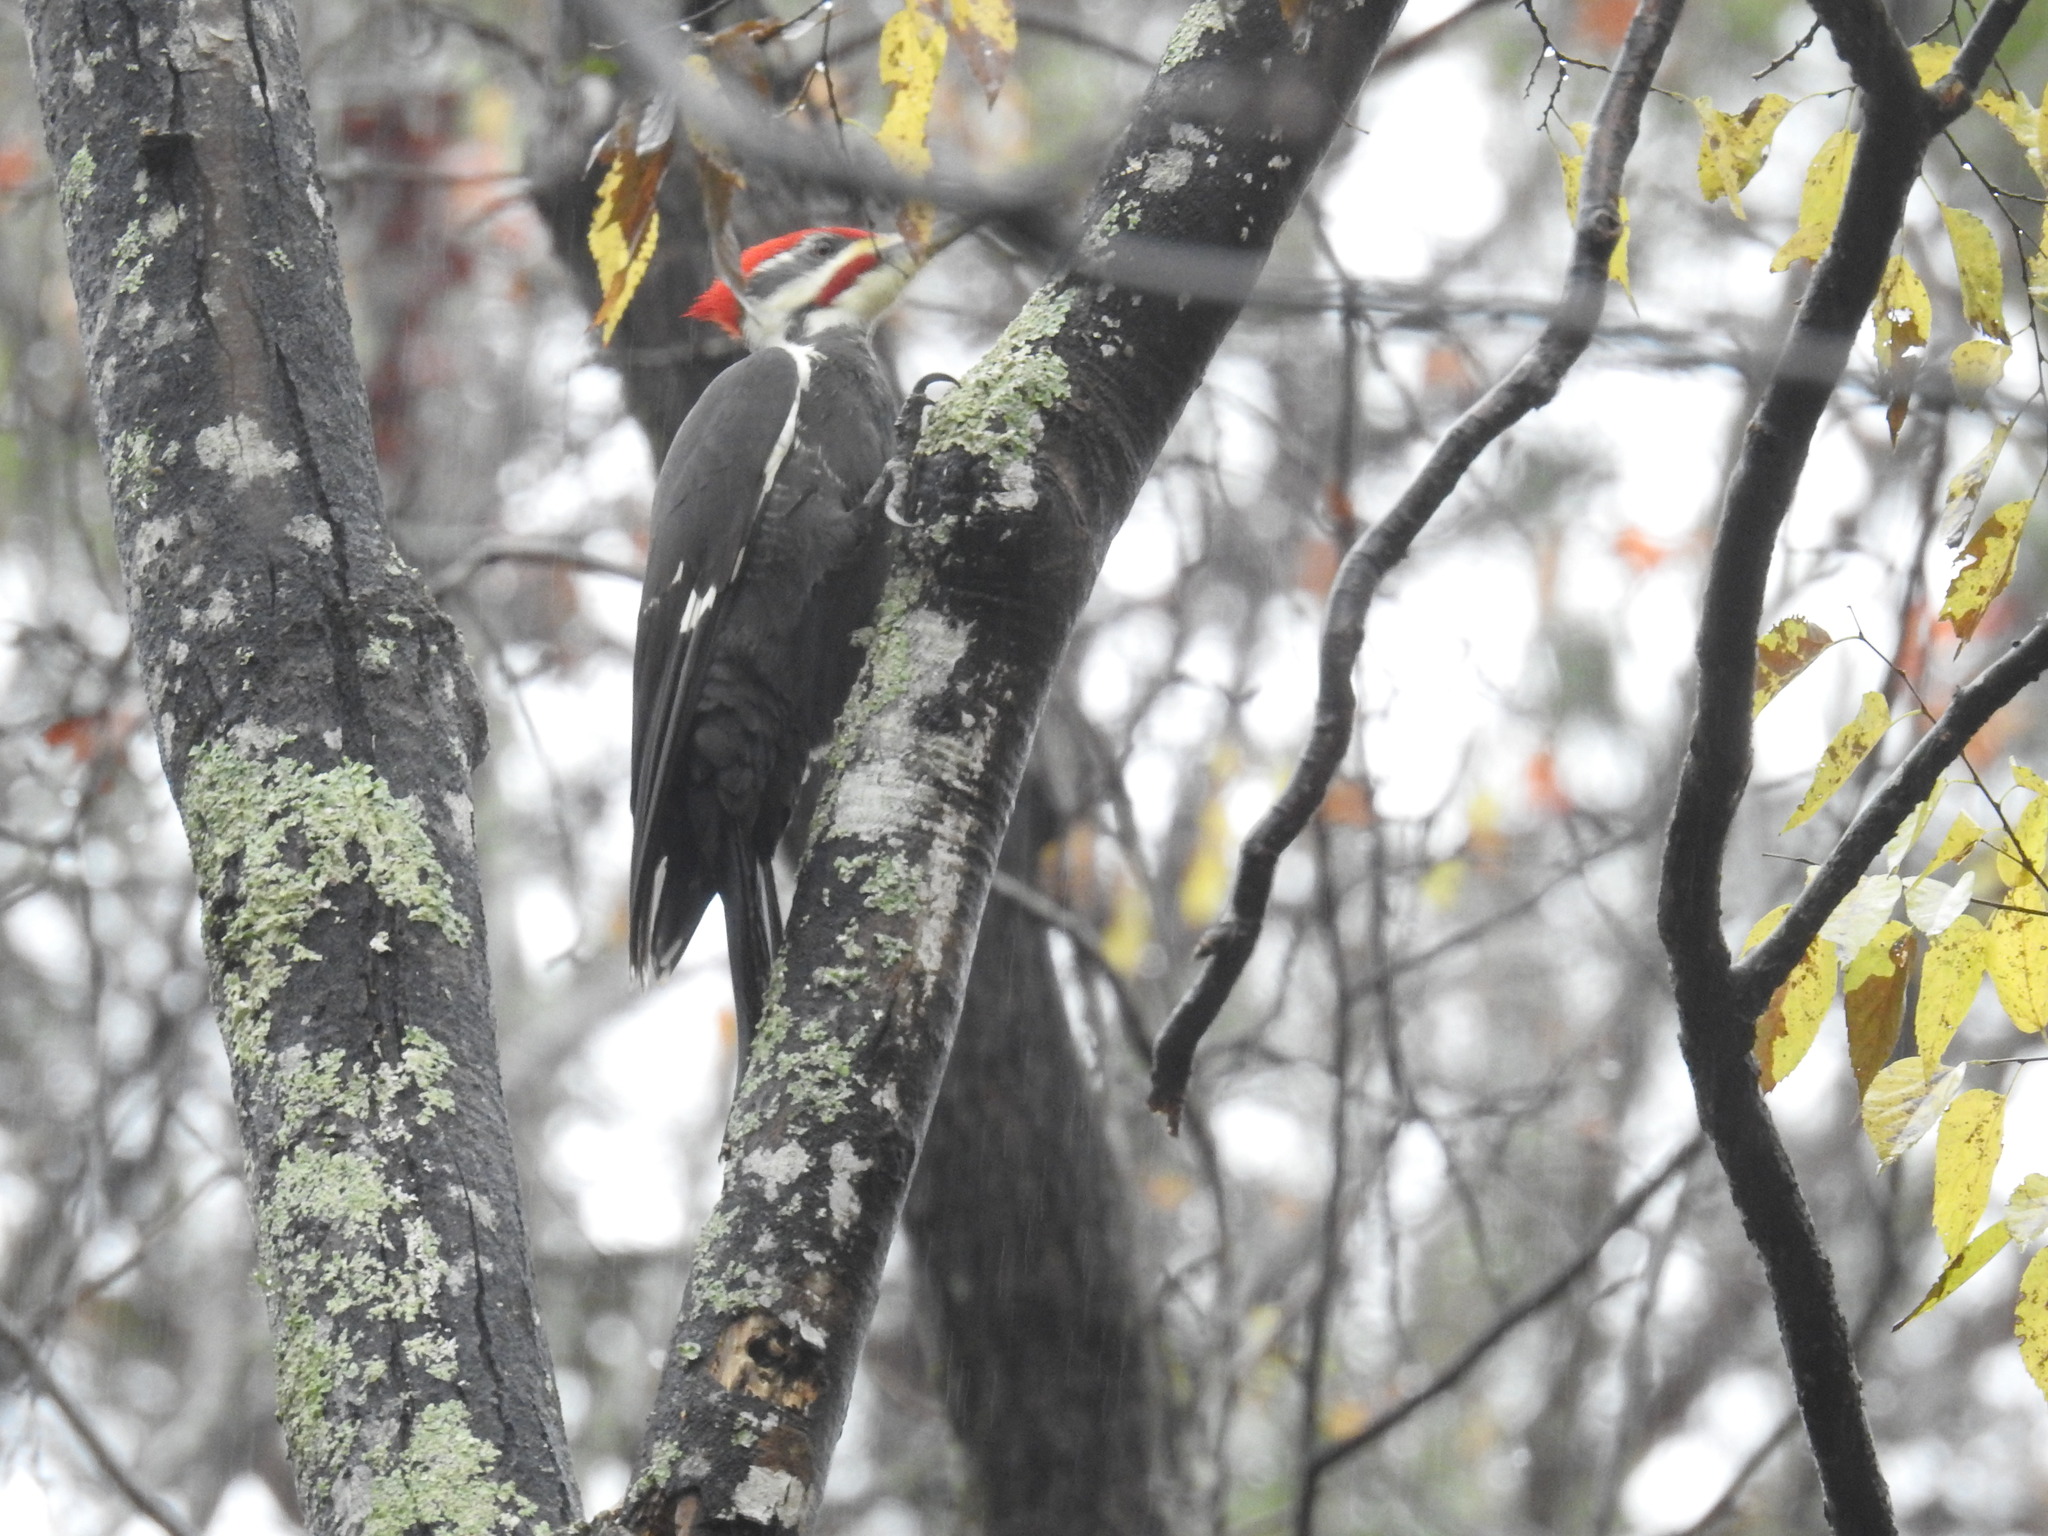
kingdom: Animalia
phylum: Chordata
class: Aves
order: Piciformes
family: Picidae
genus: Dryocopus
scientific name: Dryocopus pileatus
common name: Pileated woodpecker
